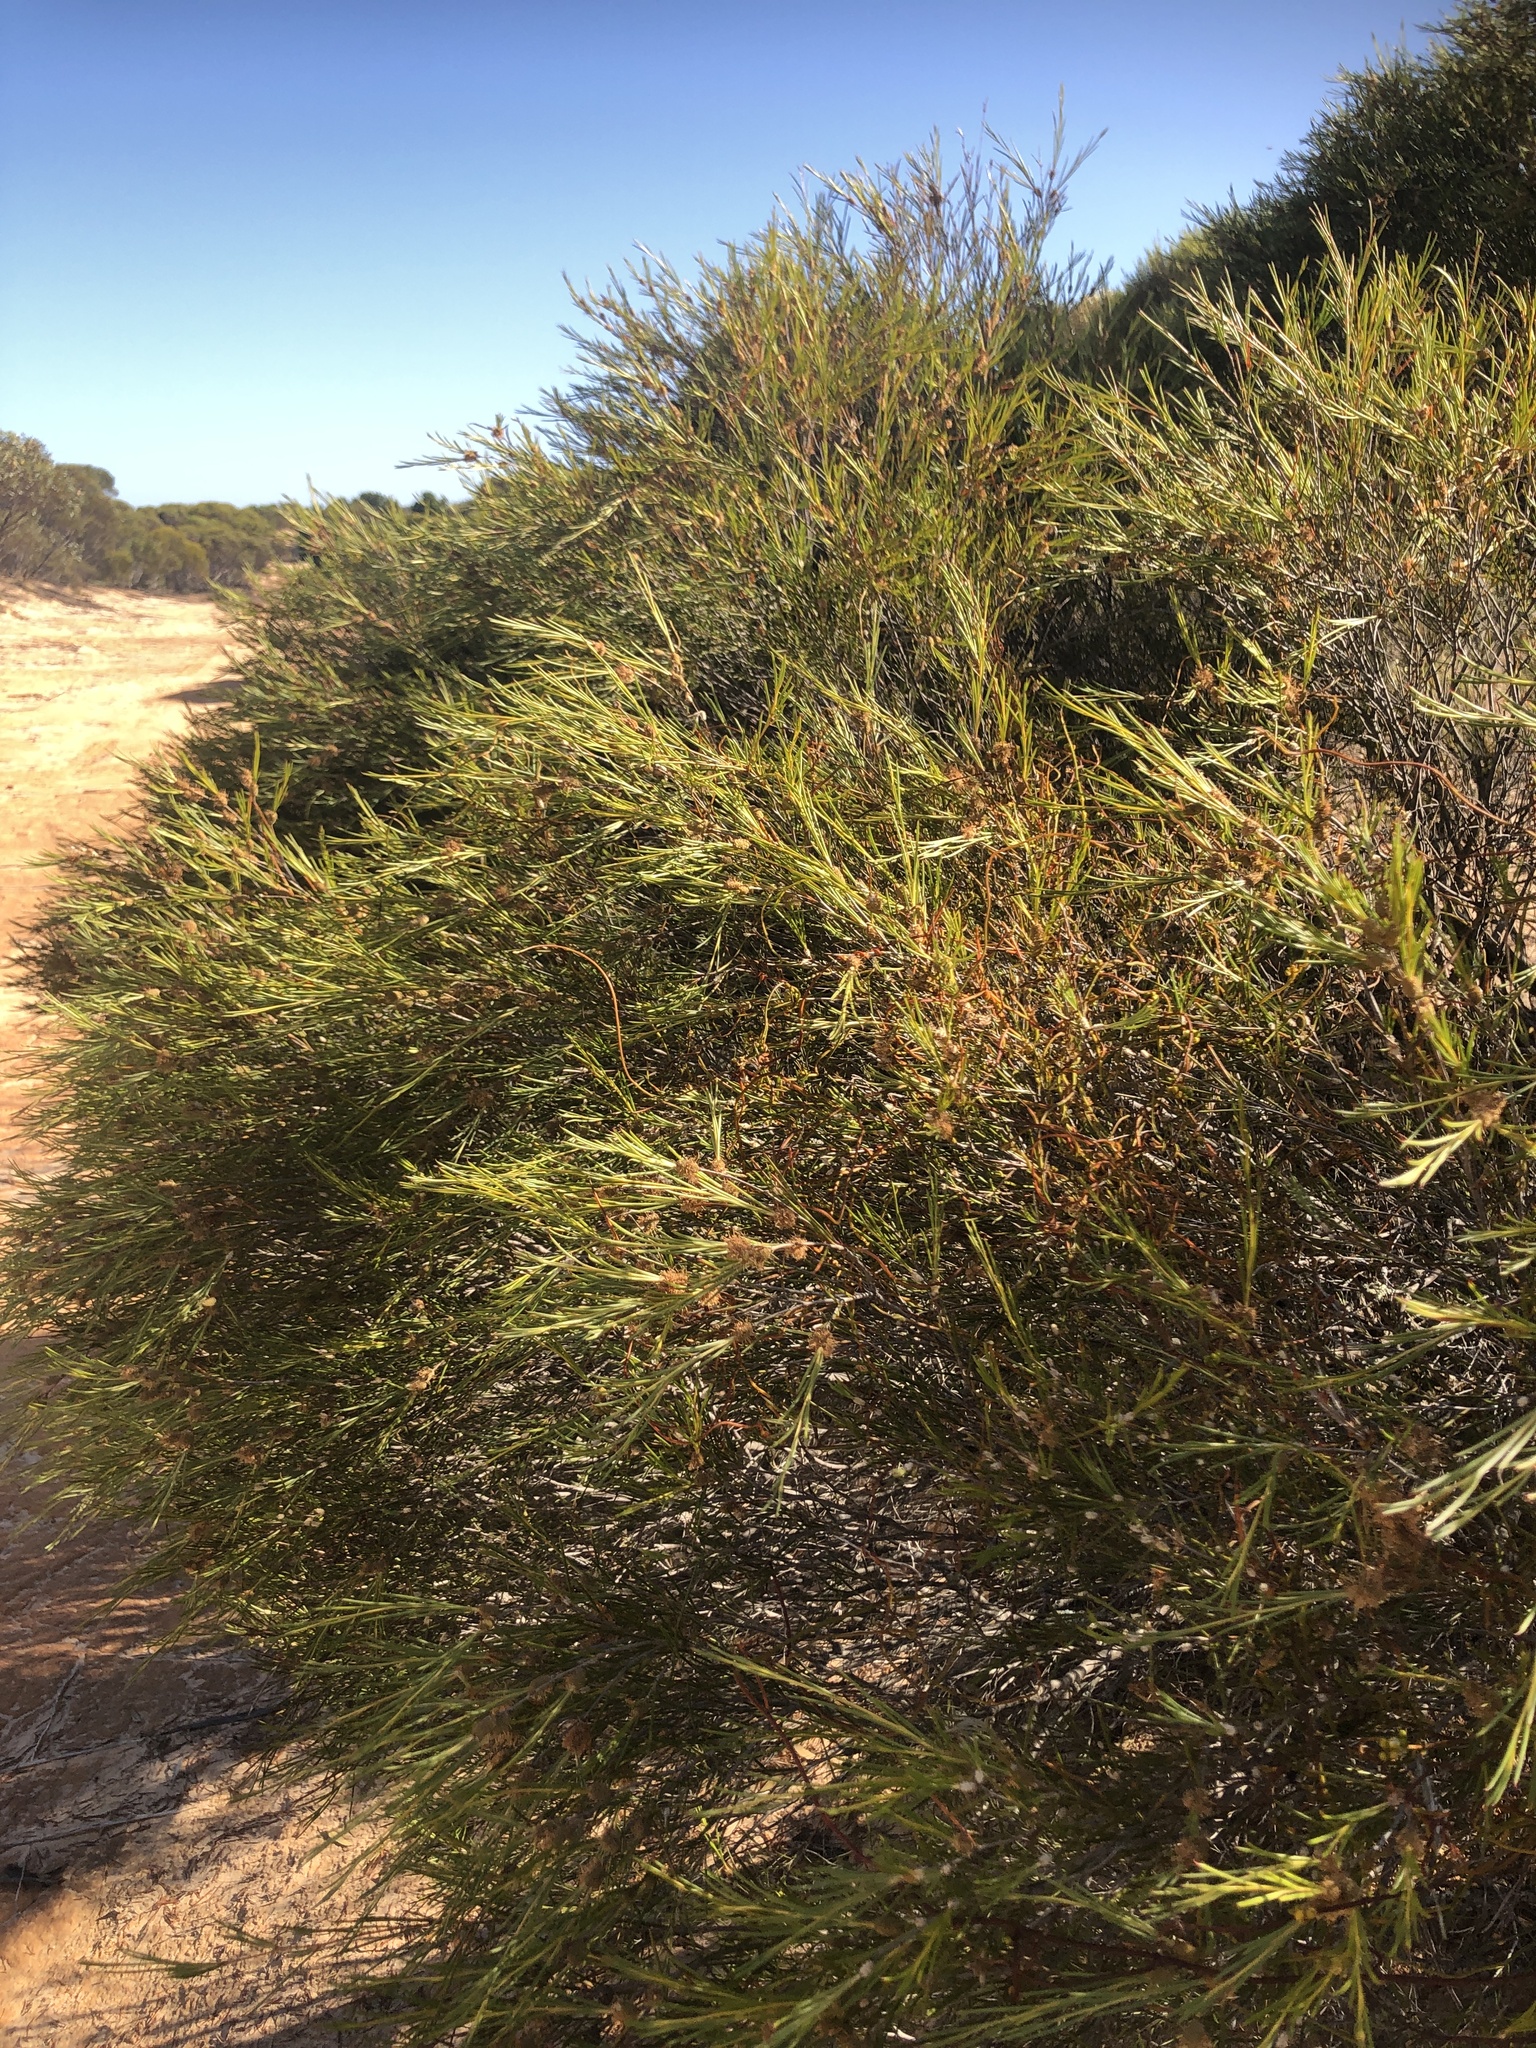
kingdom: Plantae
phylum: Tracheophyta
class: Magnoliopsida
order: Myrtales
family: Myrtaceae
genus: Melaleuca
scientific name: Melaleuca uncinata
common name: Broom honey myrtle
